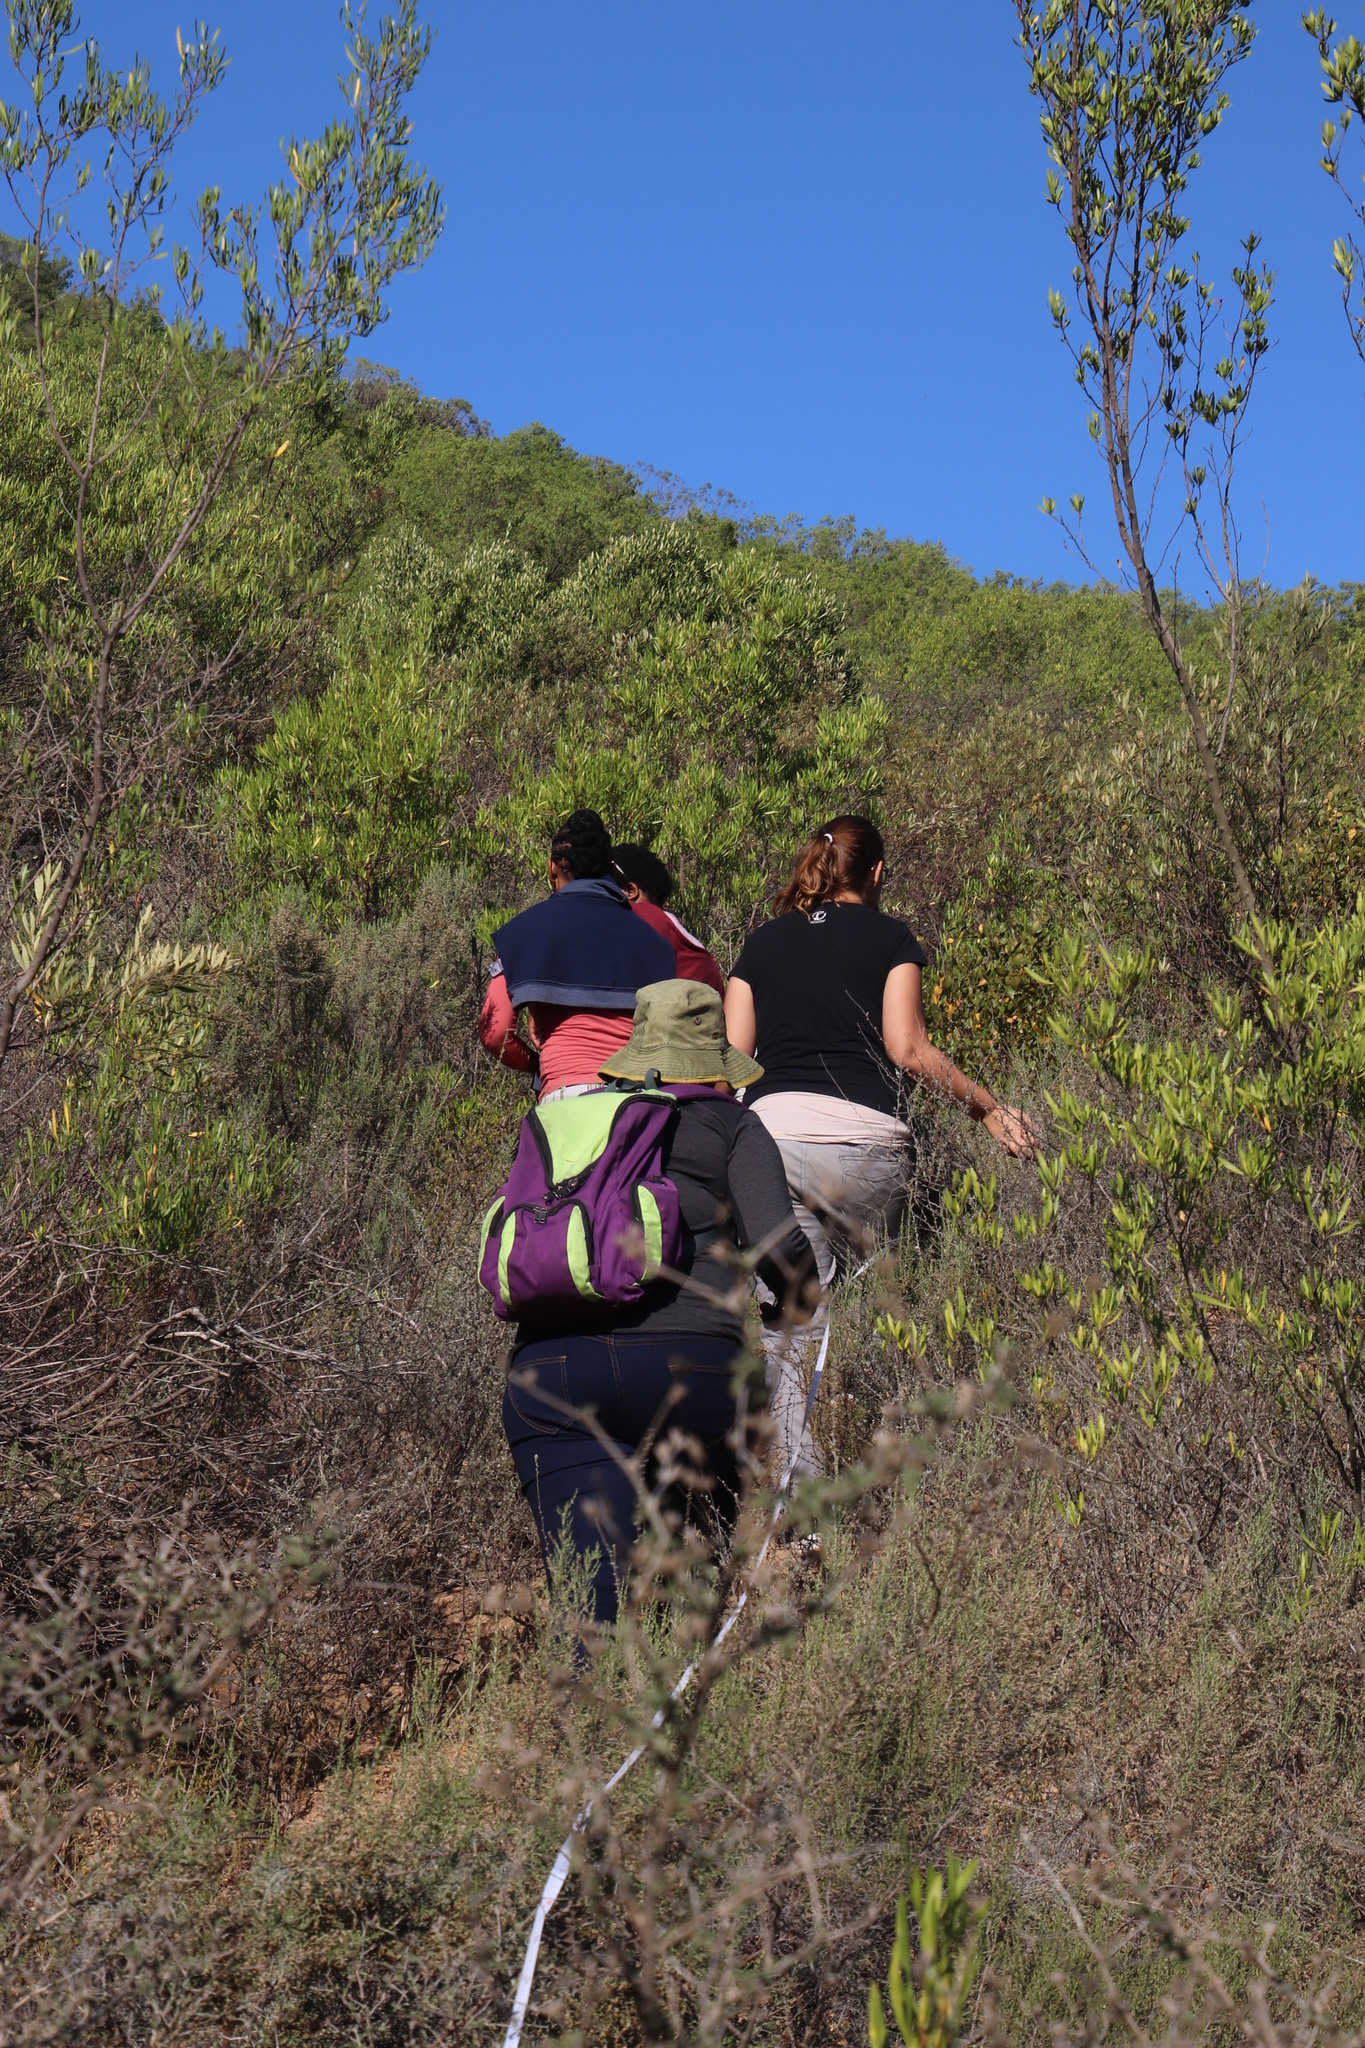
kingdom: Plantae
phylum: Tracheophyta
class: Magnoliopsida
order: Sapindales
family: Sapindaceae
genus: Dodonaea
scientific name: Dodonaea viscosa
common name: Hopbush
